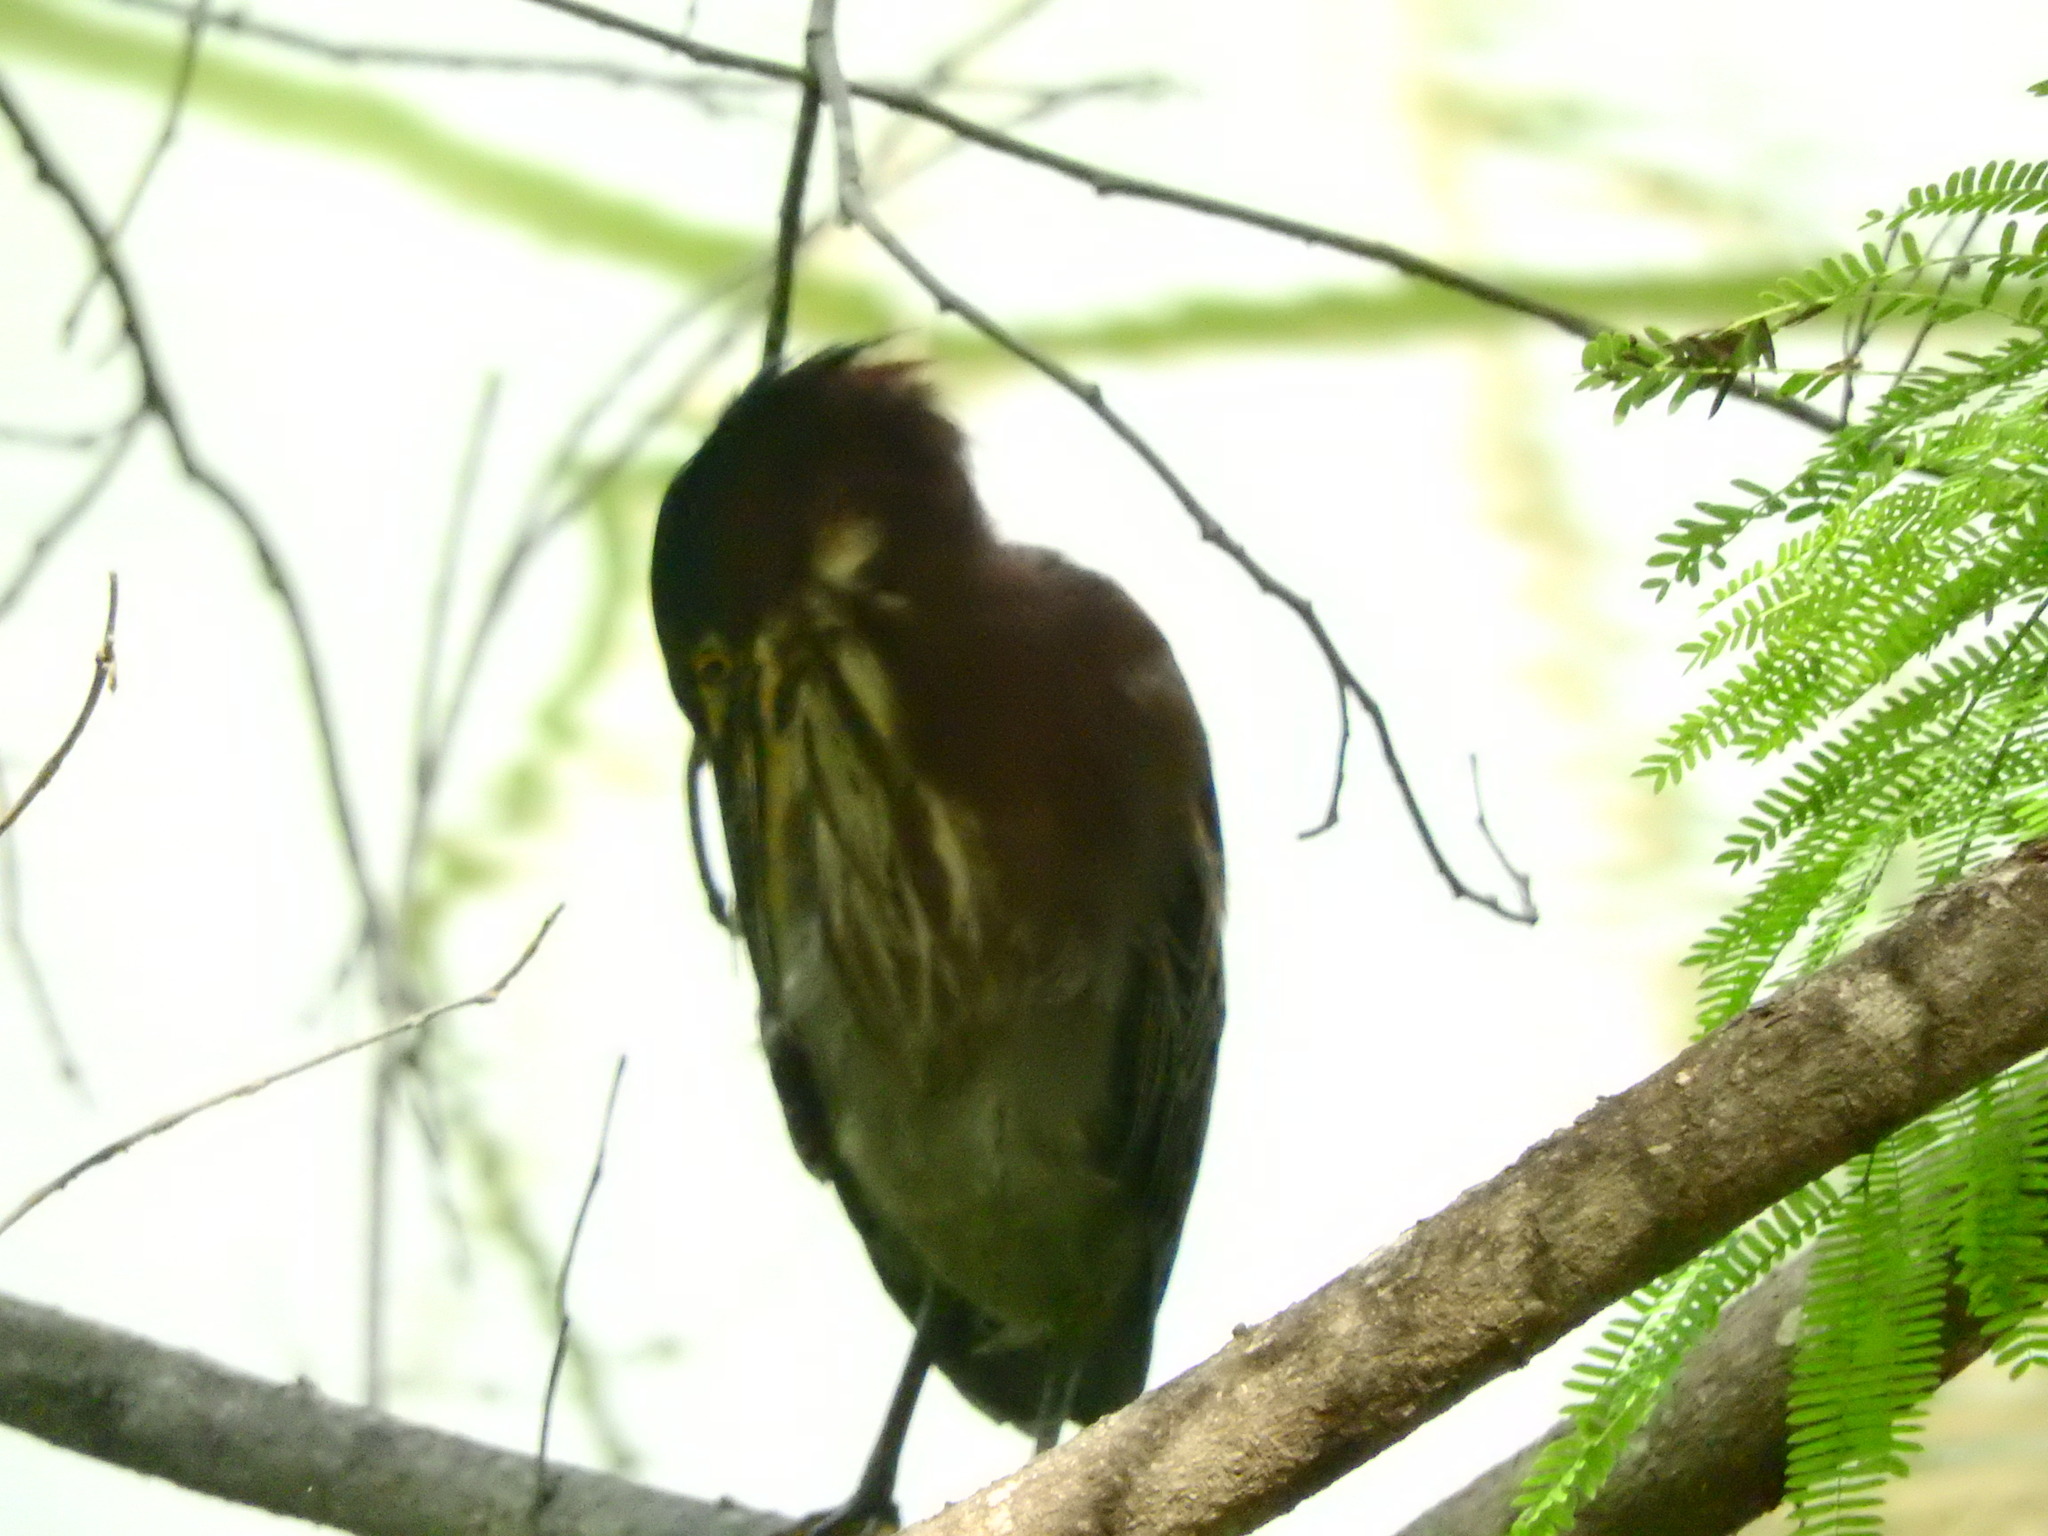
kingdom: Animalia
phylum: Chordata
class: Aves
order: Pelecaniformes
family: Ardeidae
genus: Butorides
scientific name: Butorides virescens
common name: Green heron
